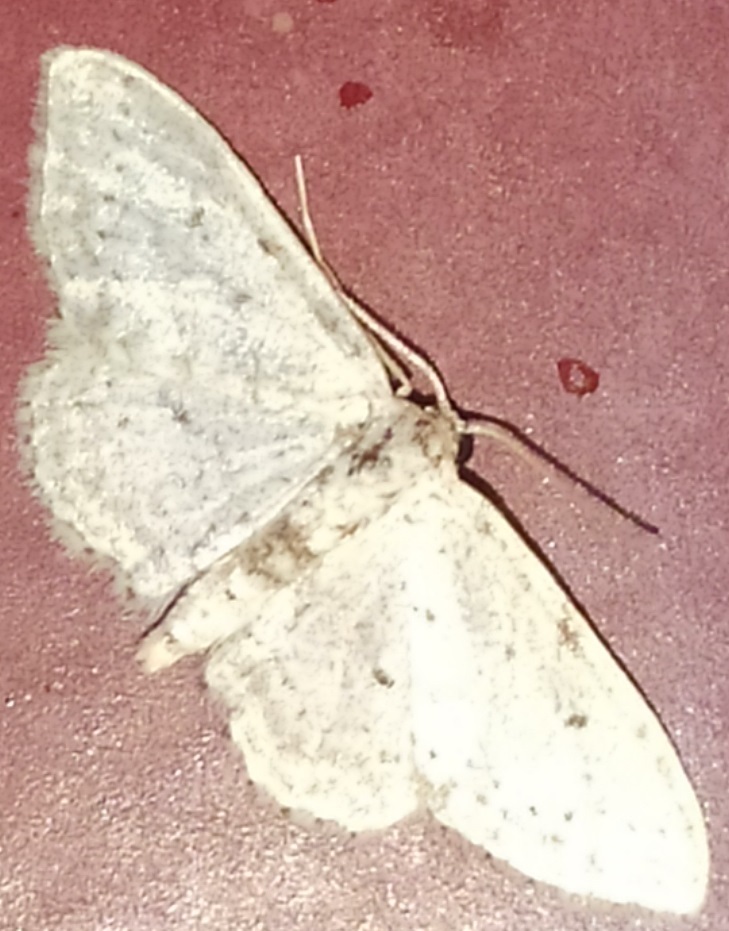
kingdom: Animalia
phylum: Arthropoda
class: Insecta
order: Lepidoptera
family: Geometridae
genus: Idaea
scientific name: Idaea seriata
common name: Small dusty wave
